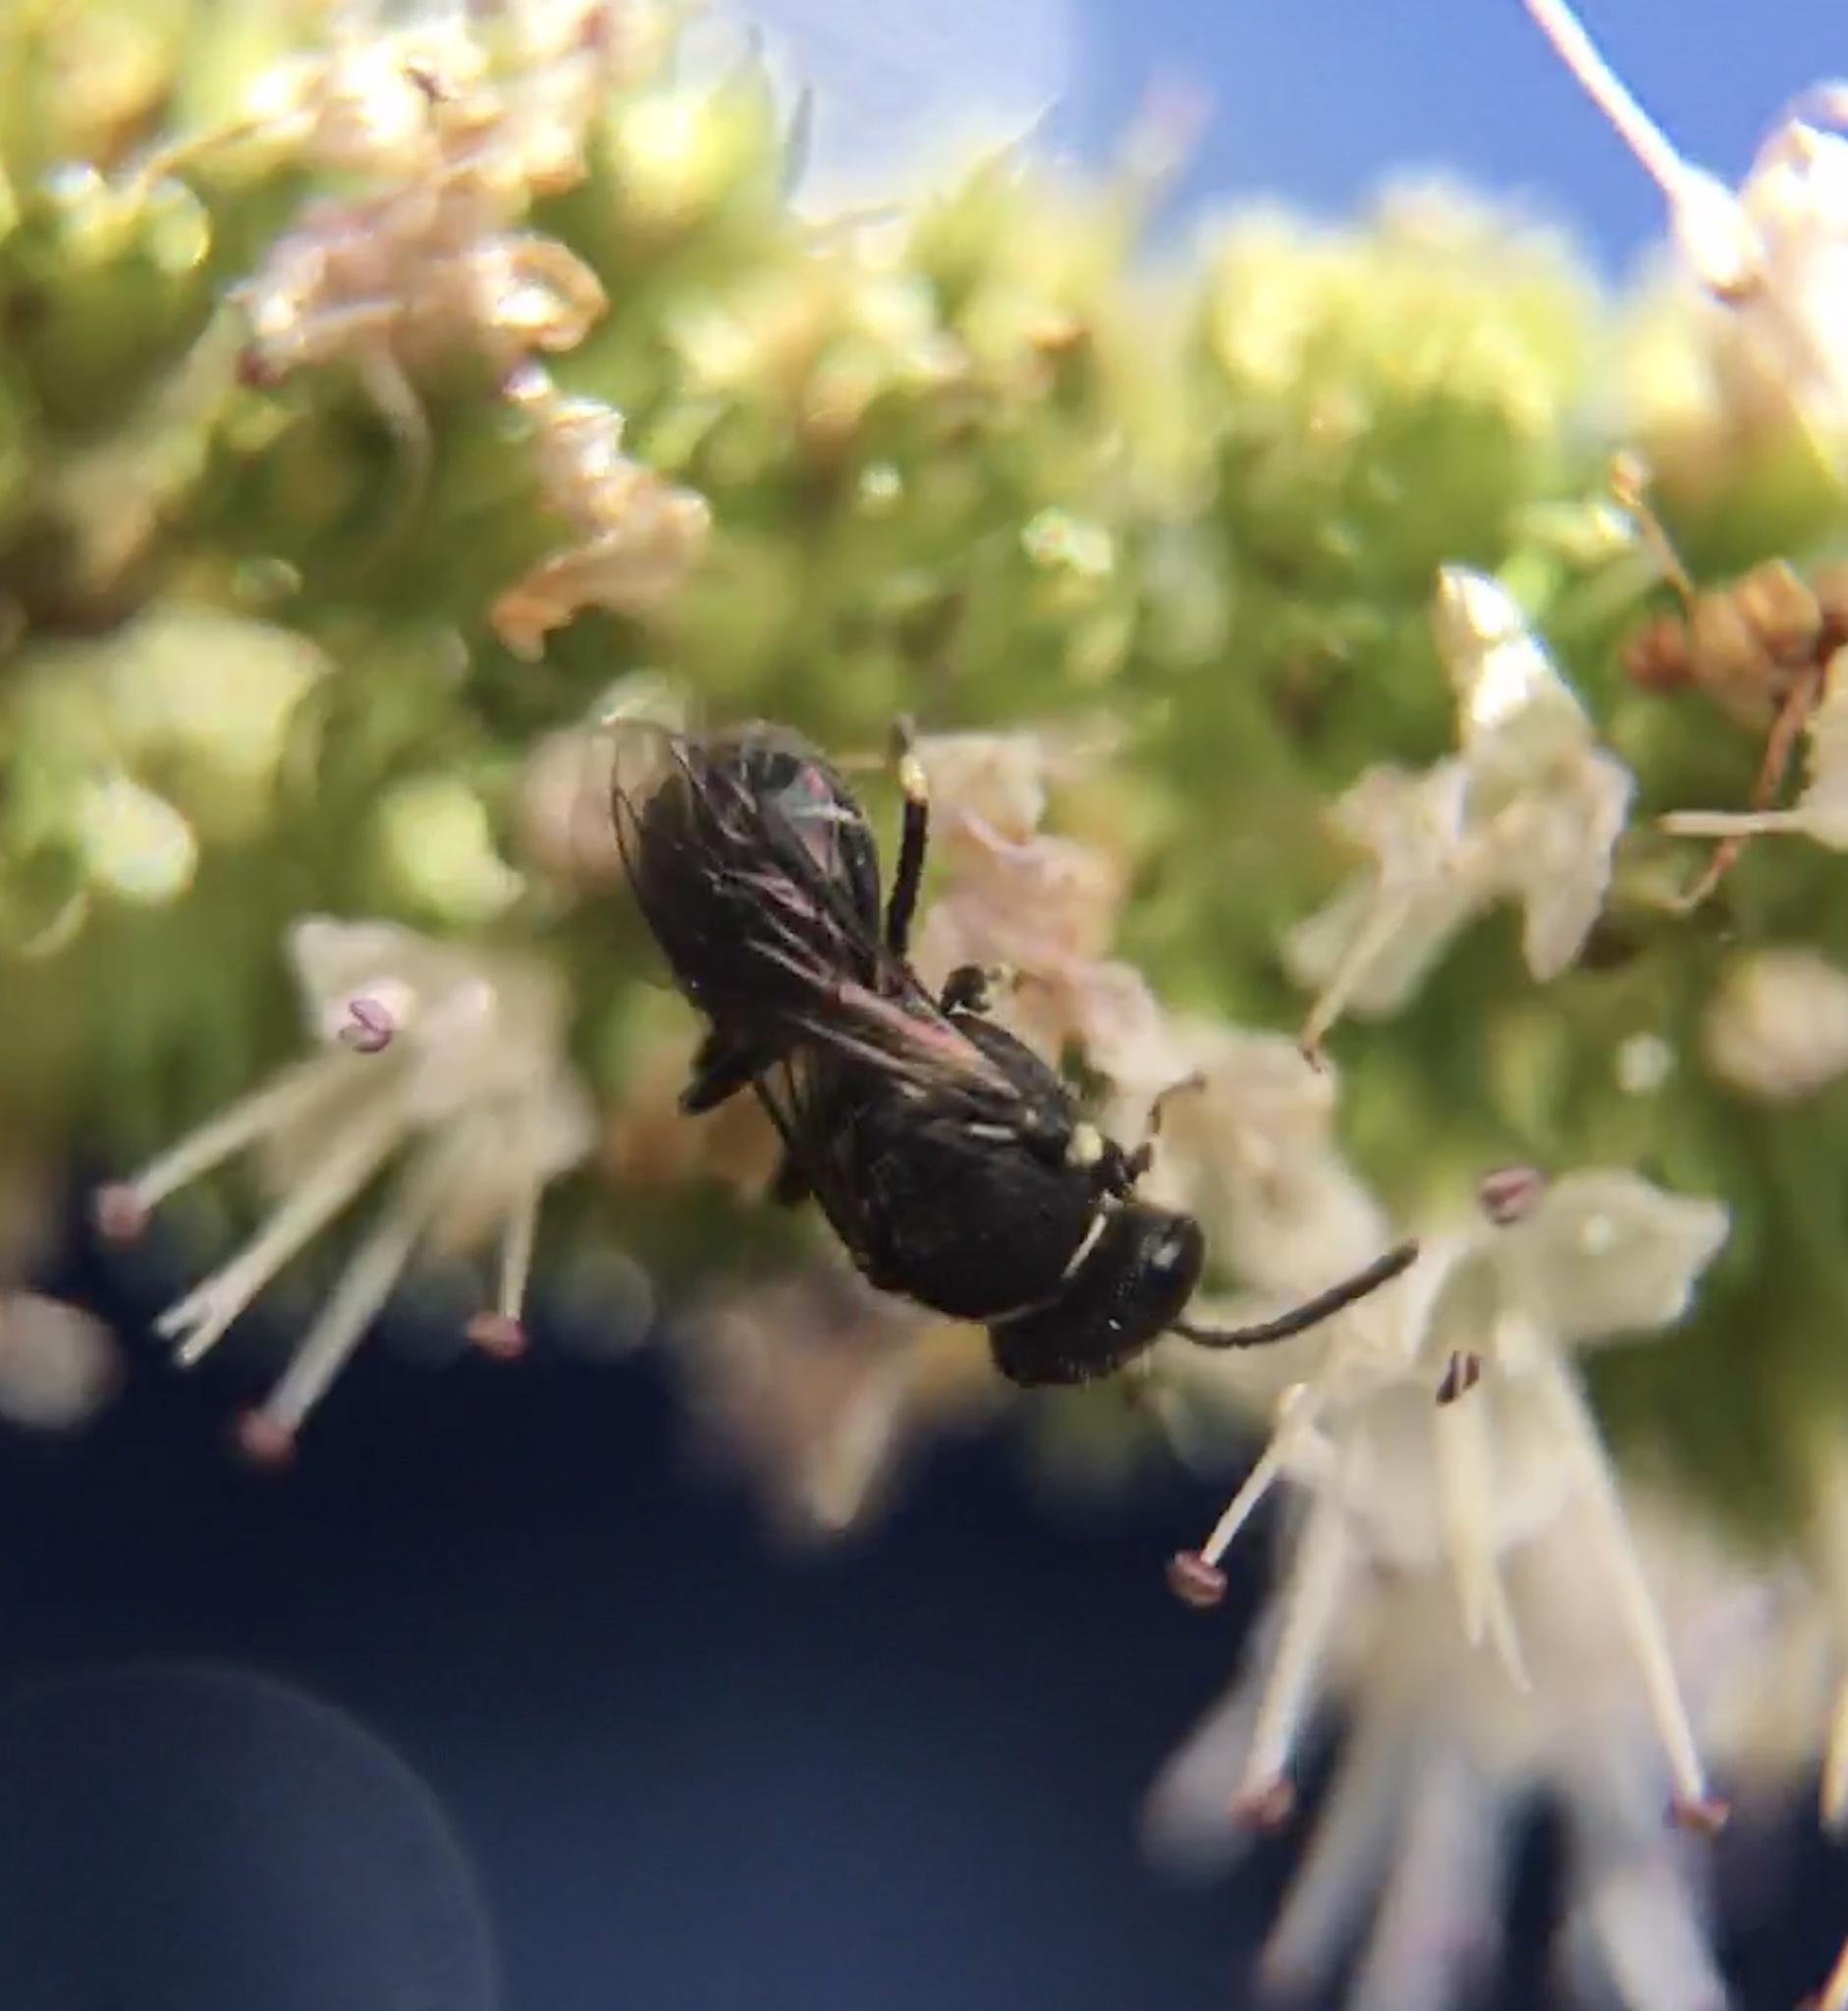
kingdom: Animalia
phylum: Arthropoda
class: Insecta
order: Hymenoptera
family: Colletidae
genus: Hylaeus
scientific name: Hylaeus
